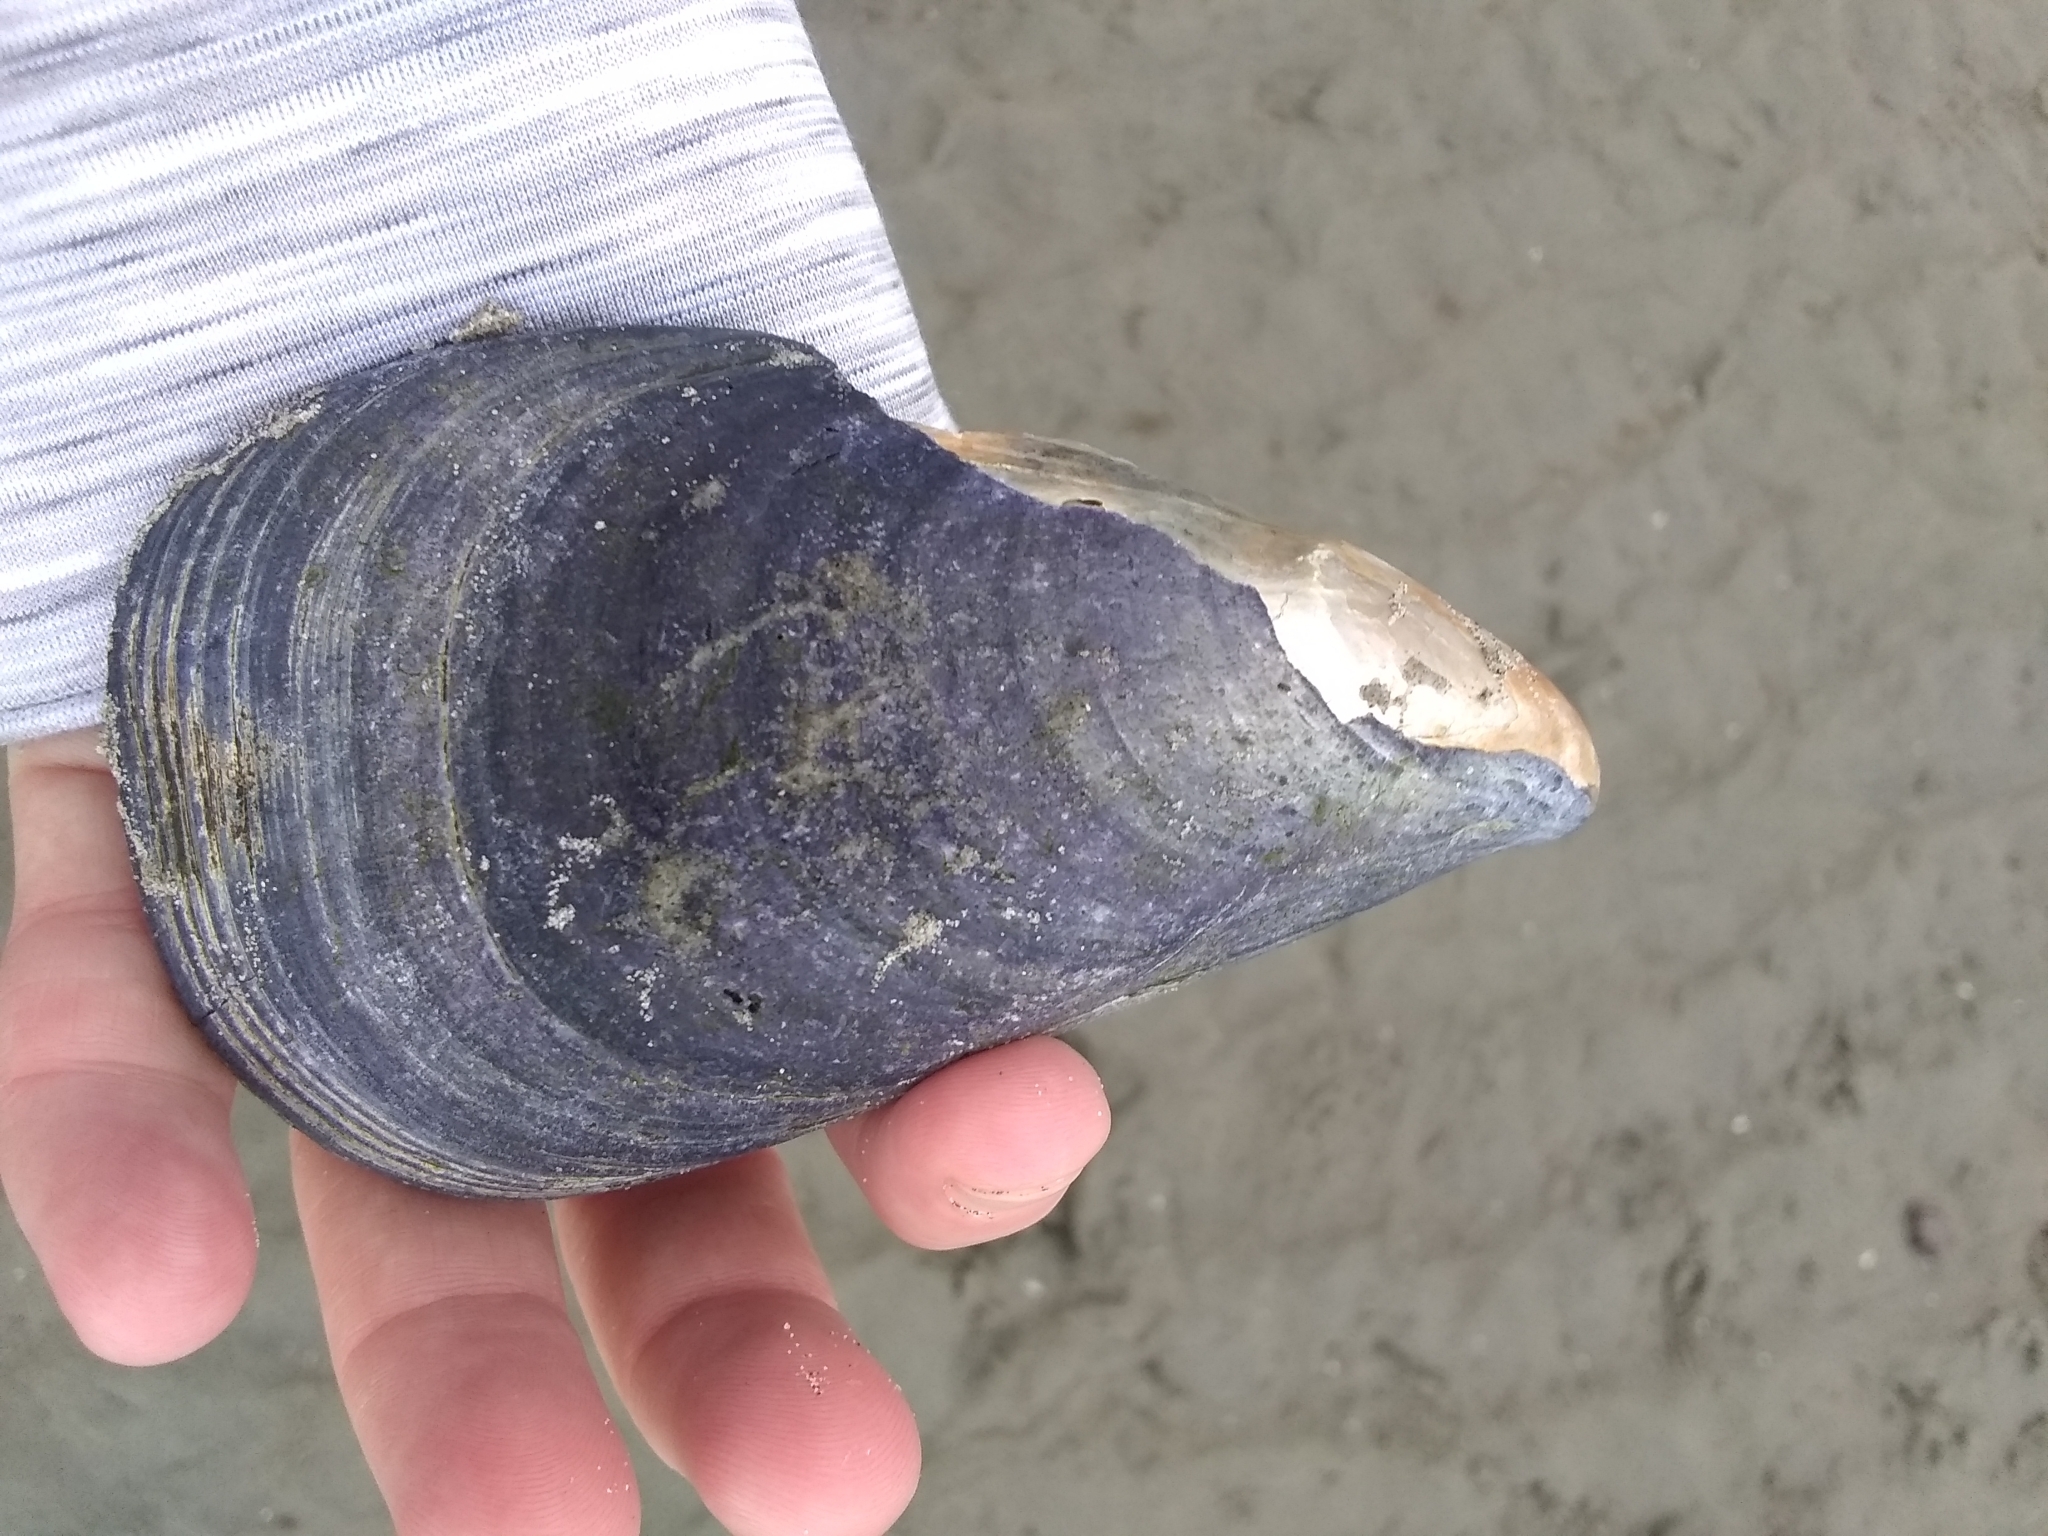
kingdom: Animalia
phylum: Mollusca
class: Bivalvia
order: Mytilida
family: Mytilidae
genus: Mytilus
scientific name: Mytilus edulis
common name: Blue mussel
